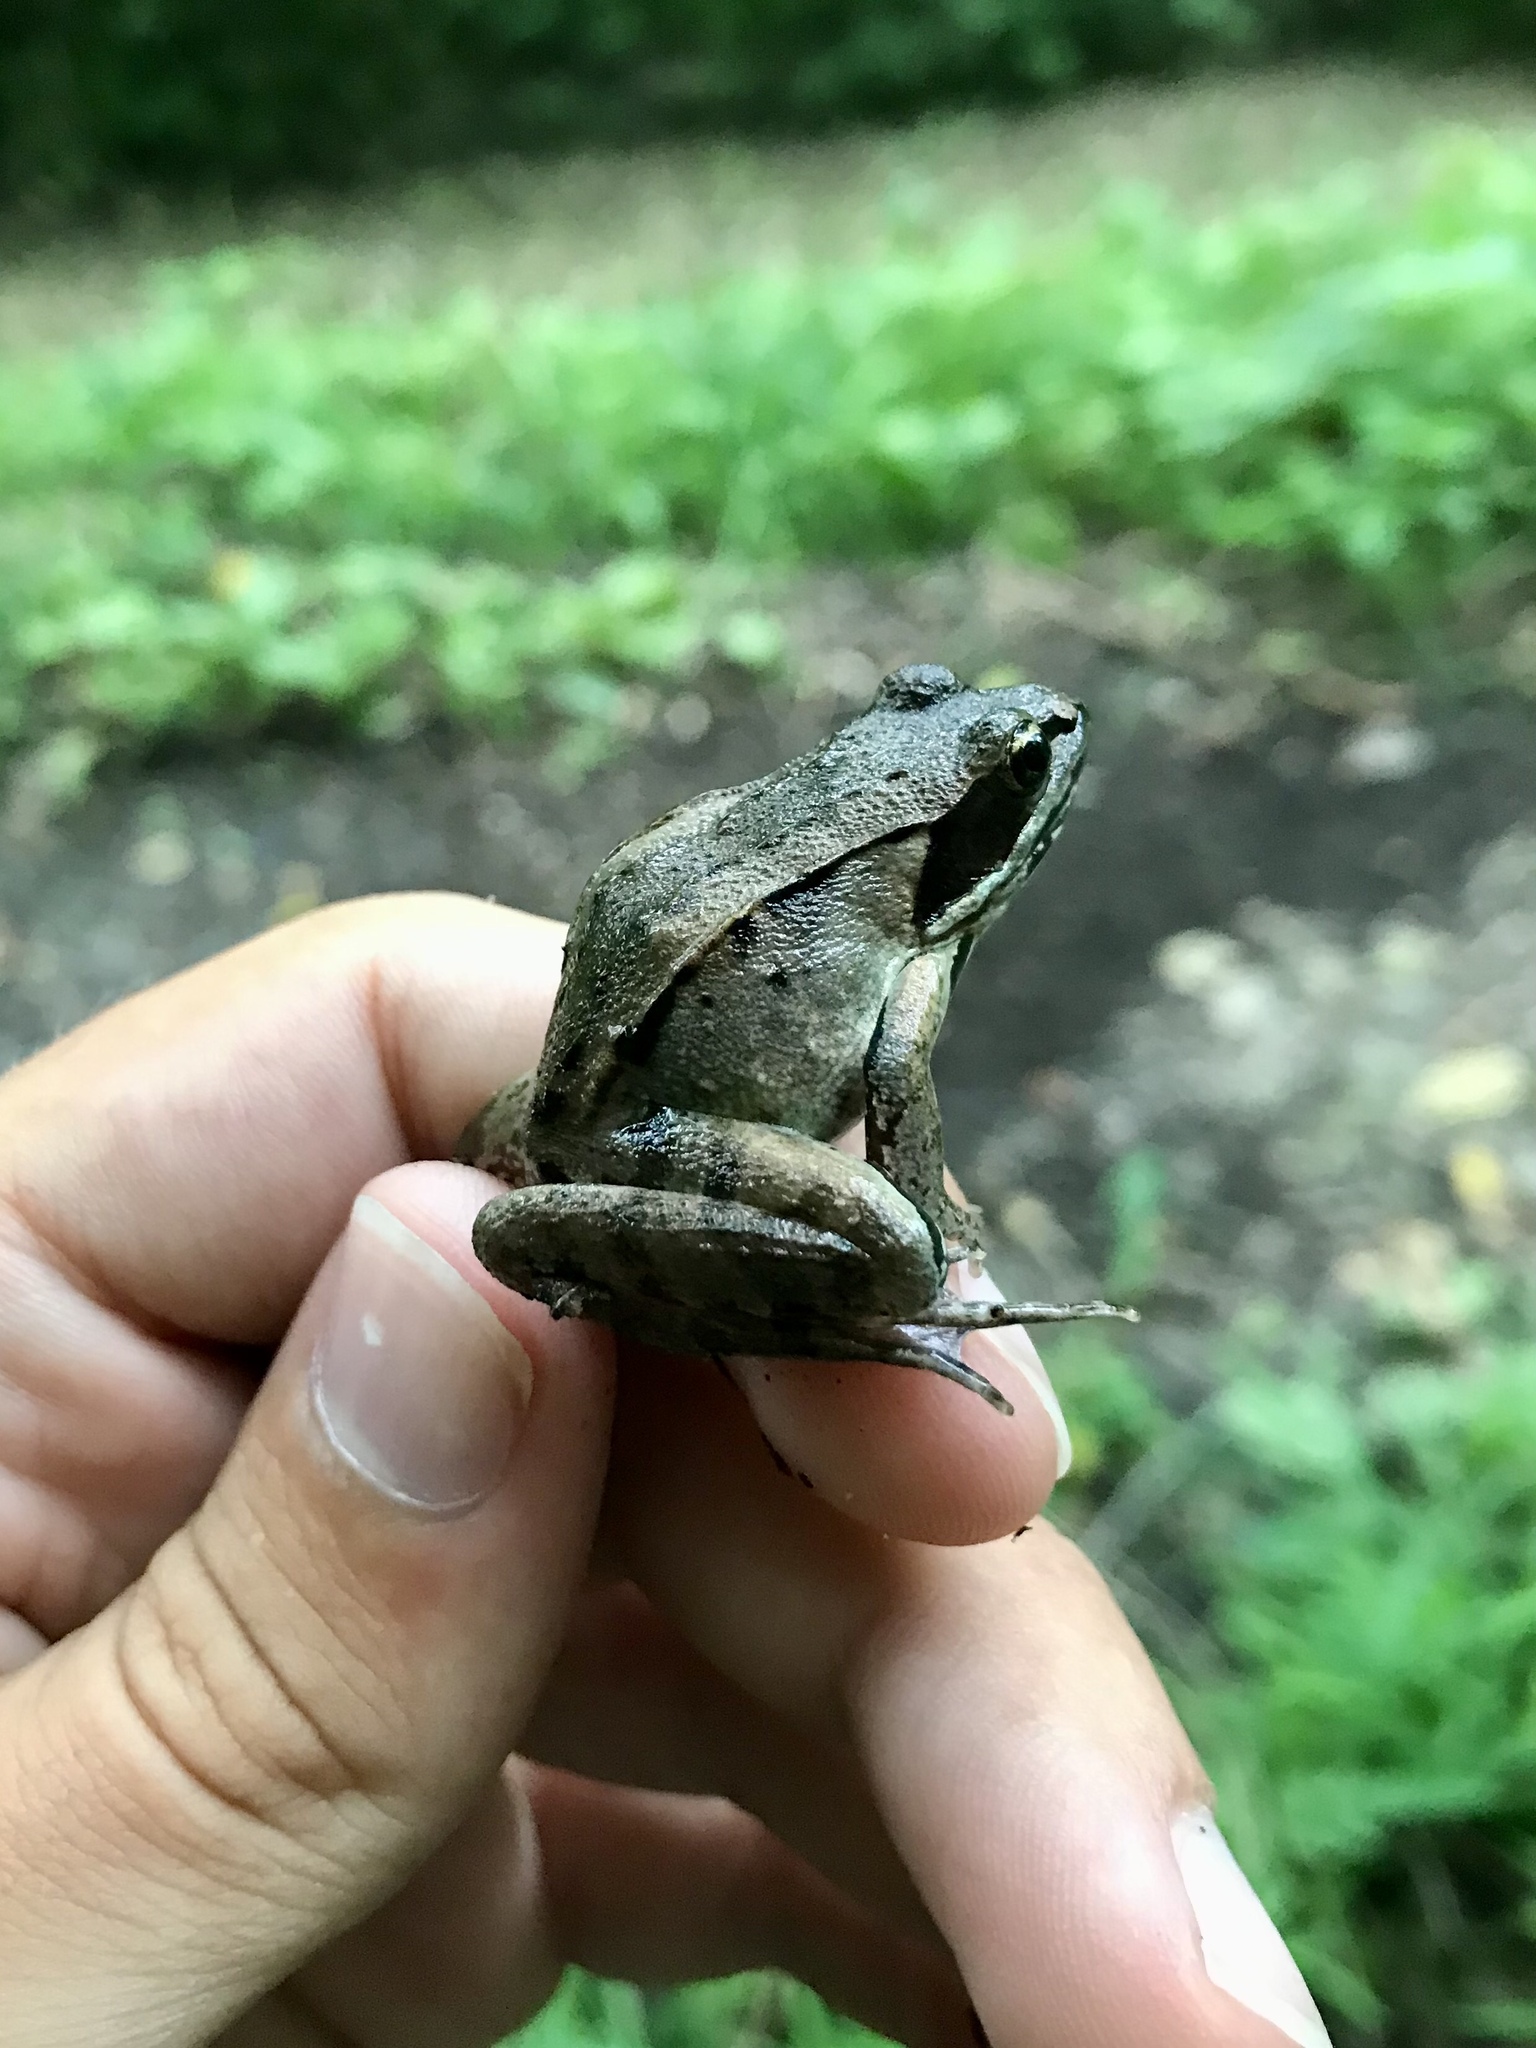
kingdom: Animalia
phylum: Chordata
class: Amphibia
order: Anura
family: Ranidae
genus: Lithobates
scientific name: Lithobates sylvaticus
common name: Wood frog
